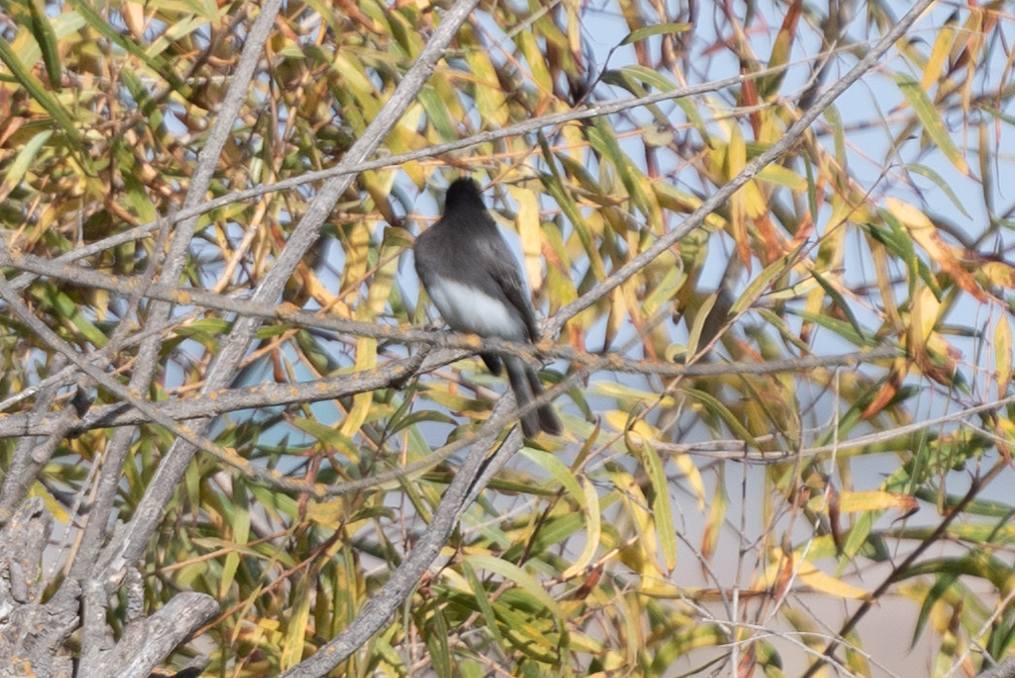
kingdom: Animalia
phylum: Chordata
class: Aves
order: Passeriformes
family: Tyrannidae
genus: Sayornis
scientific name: Sayornis nigricans
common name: Black phoebe
